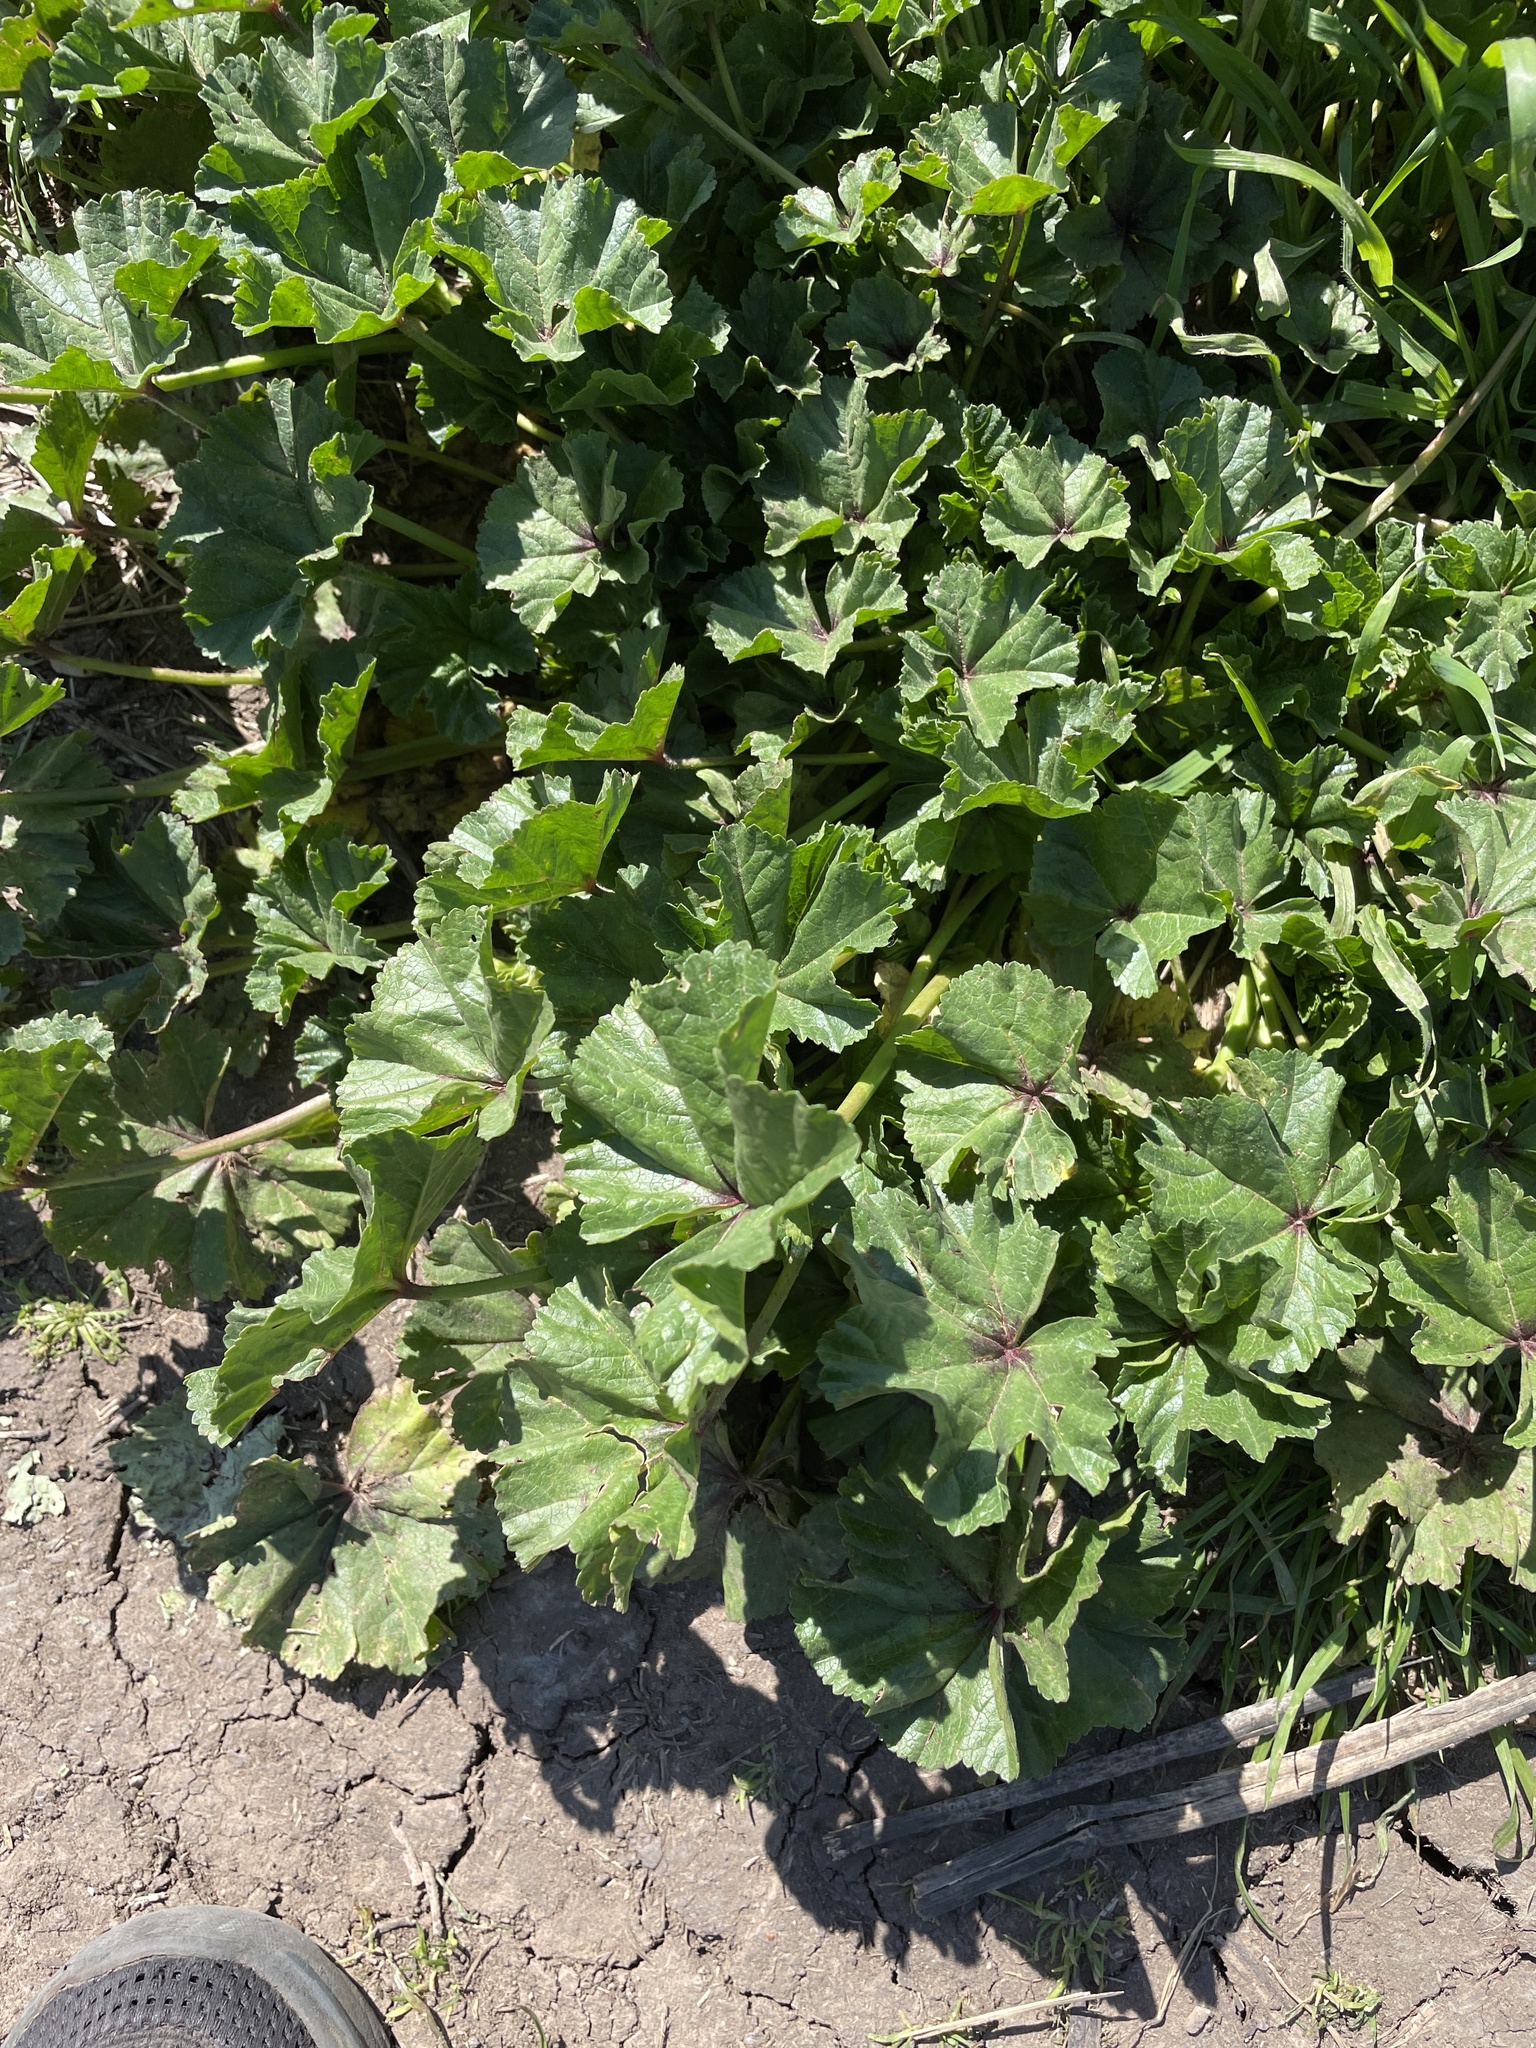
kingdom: Plantae
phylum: Tracheophyta
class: Magnoliopsida
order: Malvales
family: Malvaceae
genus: Malva
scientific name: Malva
